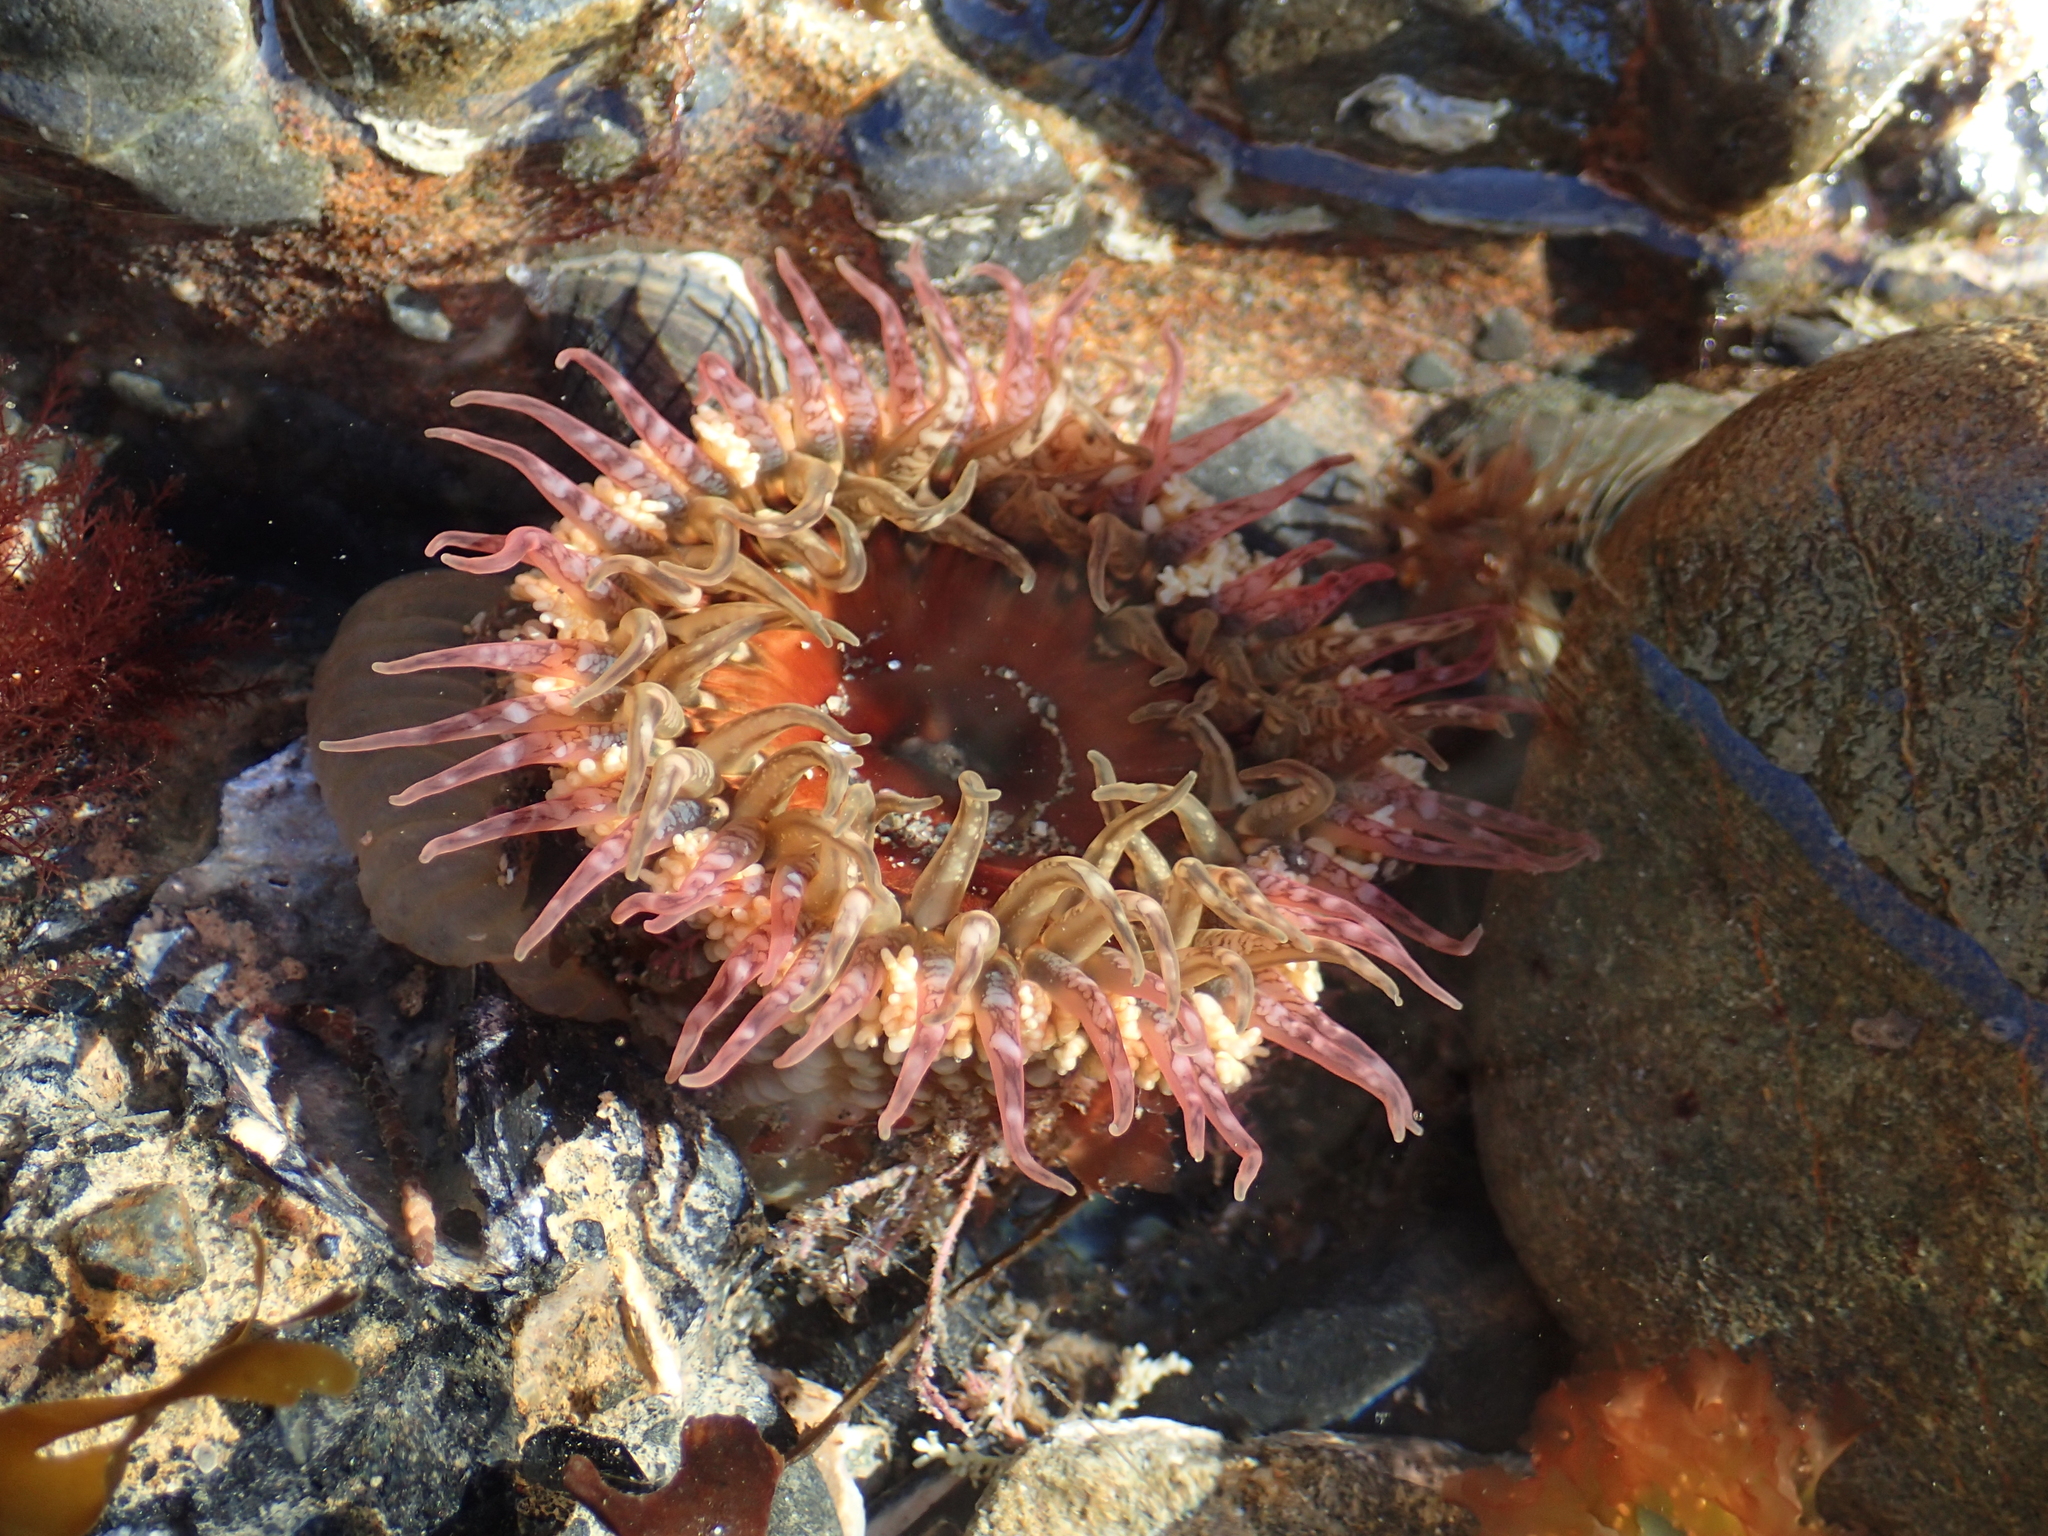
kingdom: Animalia
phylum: Cnidaria
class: Anthozoa
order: Actiniaria
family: Actiniidae
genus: Oulactis
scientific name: Oulactis muscosa
